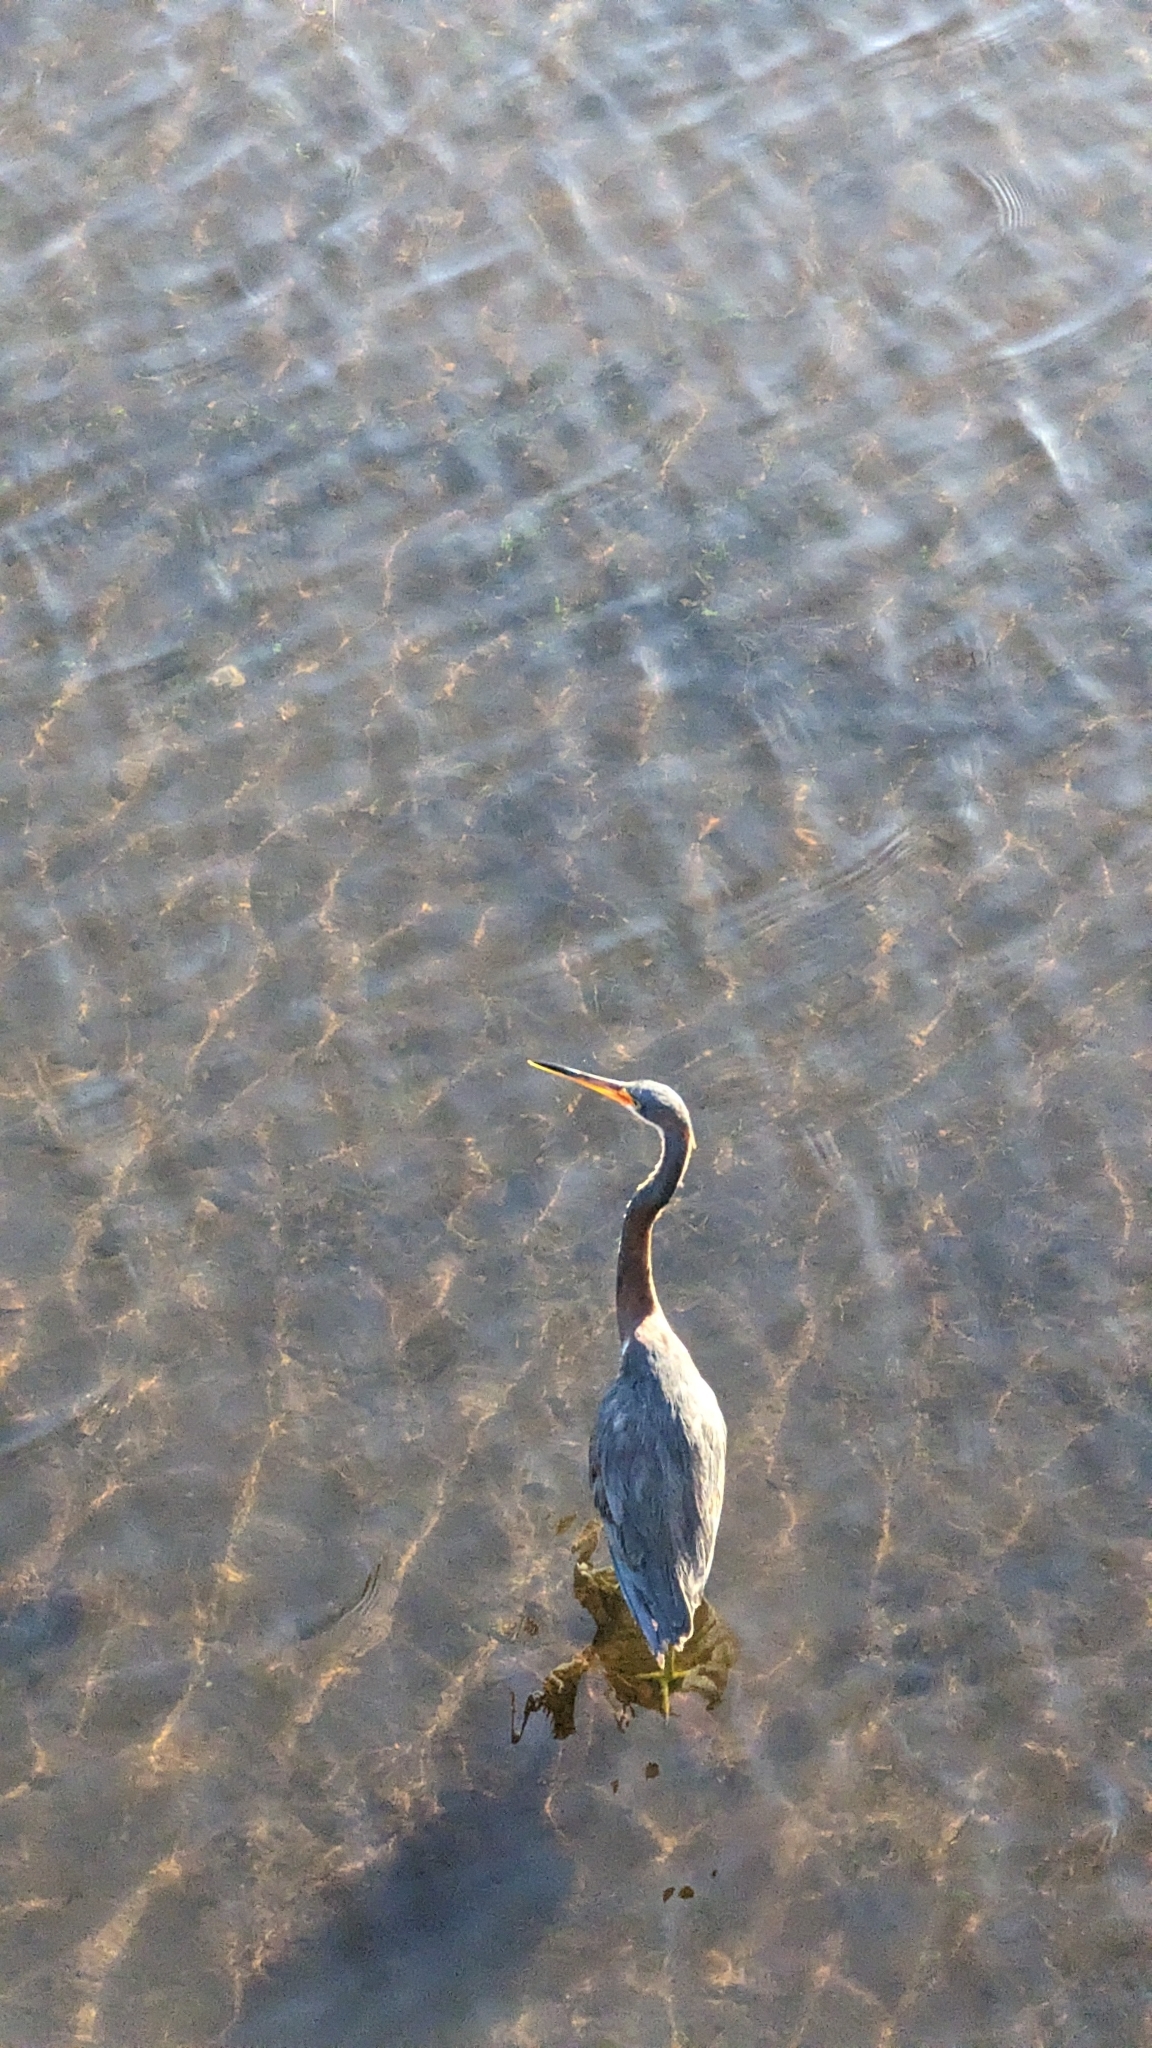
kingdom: Animalia
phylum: Chordata
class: Aves
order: Pelecaniformes
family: Ardeidae
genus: Egretta
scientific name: Egretta tricolor
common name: Tricolored heron
